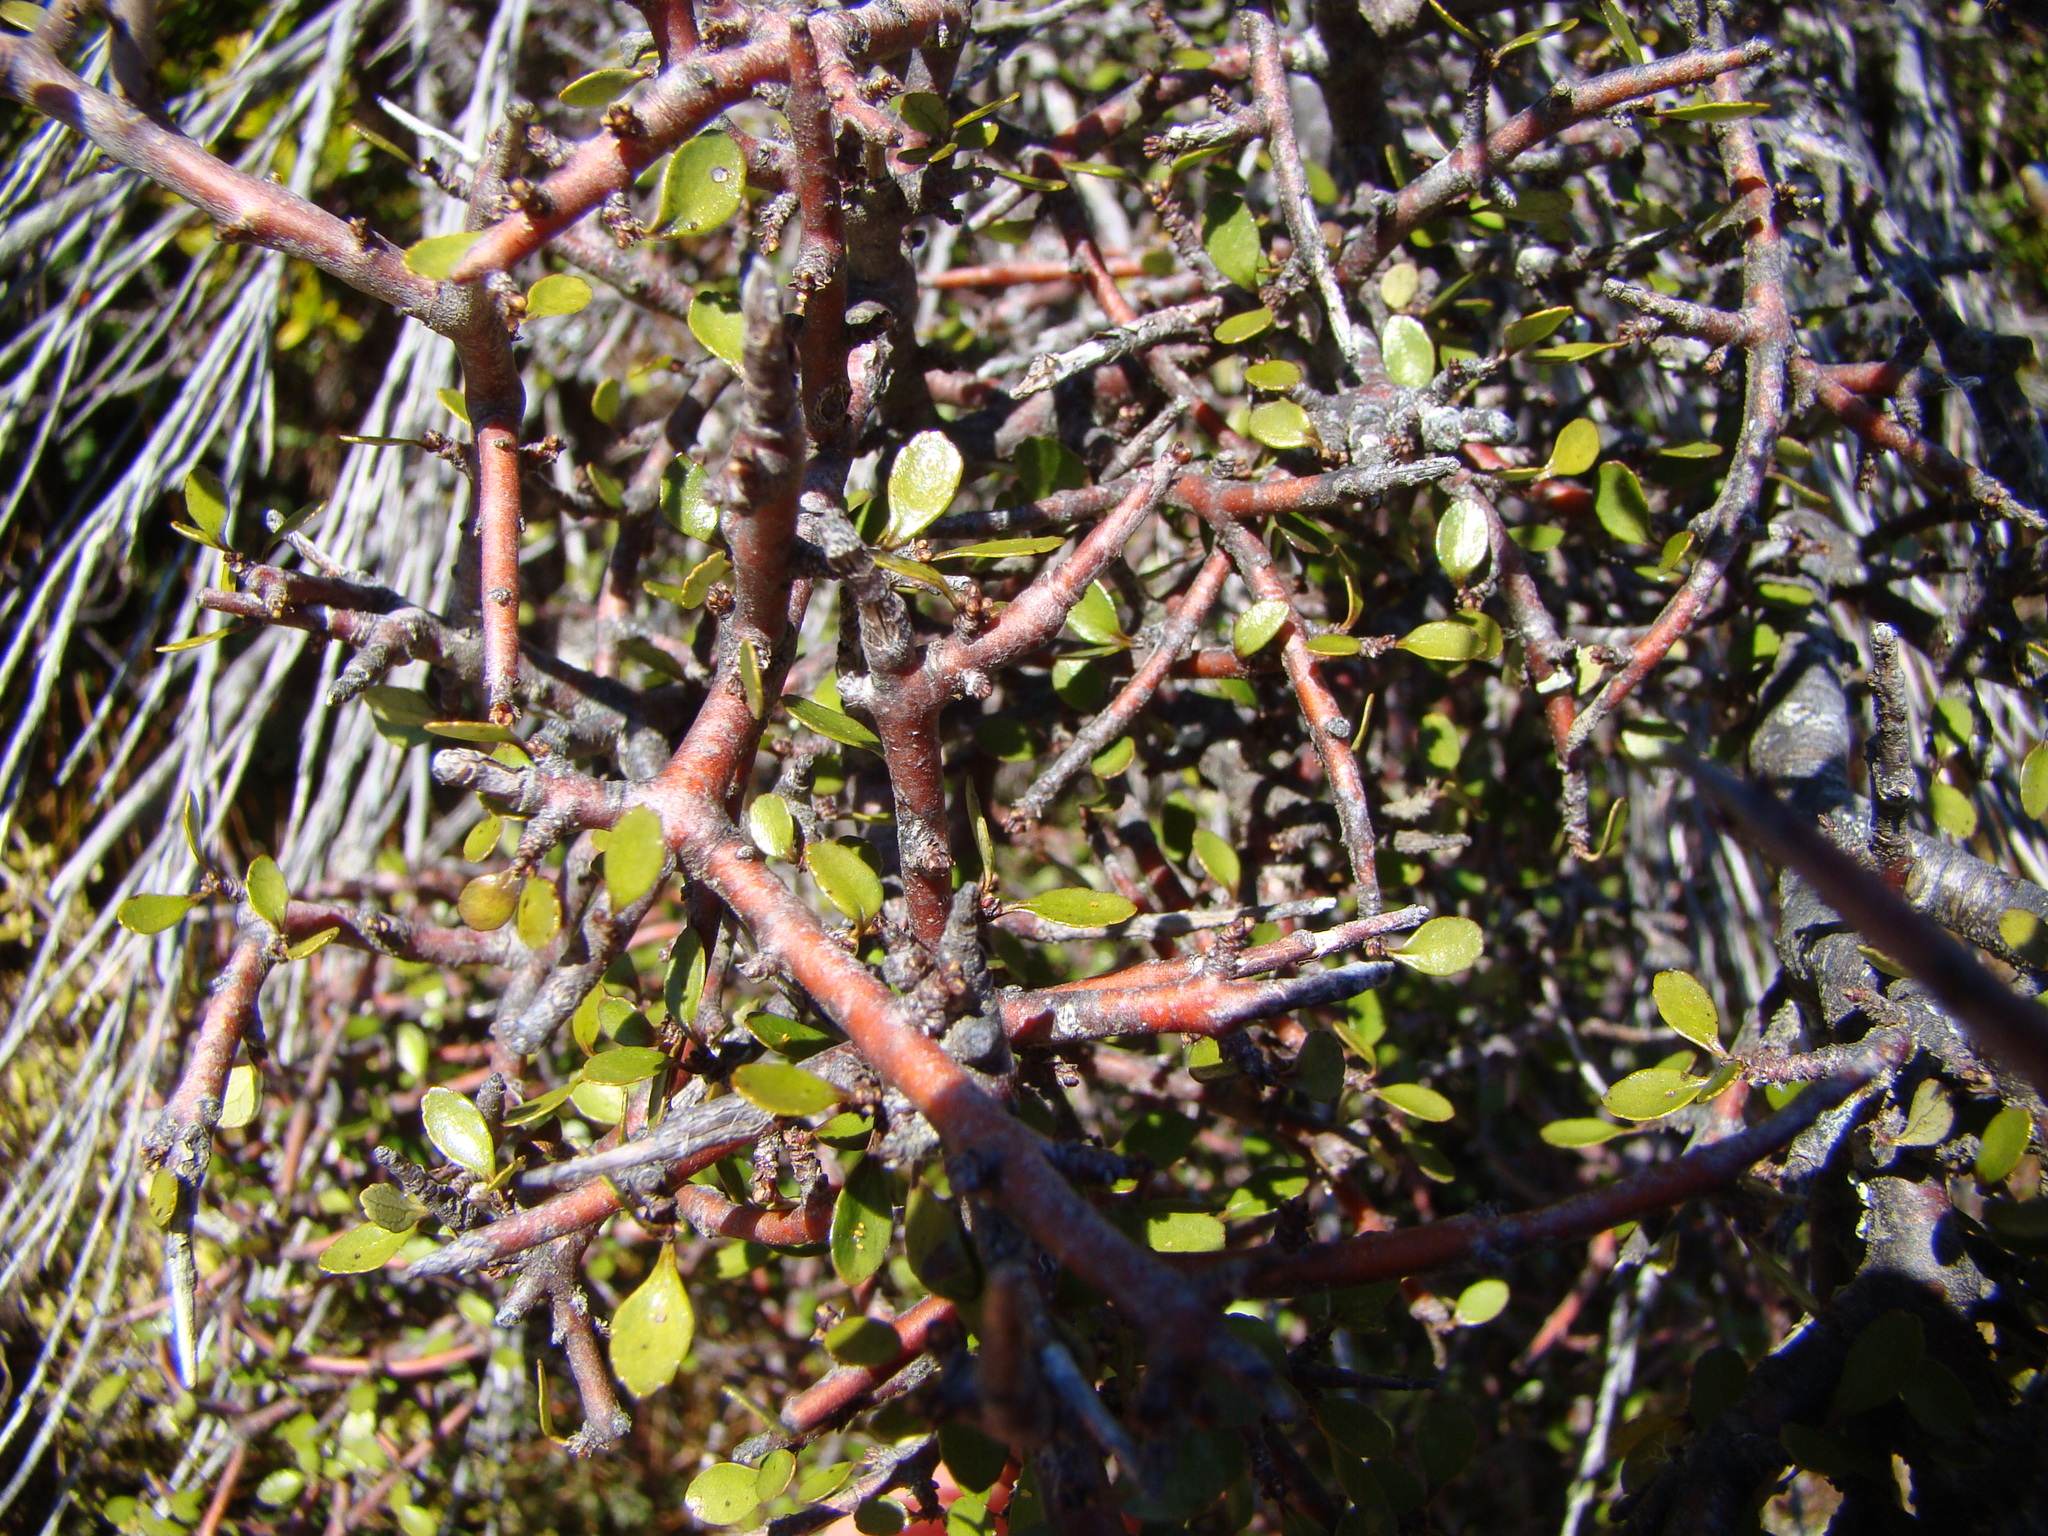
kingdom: Plantae
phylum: Tracheophyta
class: Magnoliopsida
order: Oxalidales
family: Elaeocarpaceae
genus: Aristotelia
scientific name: Aristotelia fruticosa
